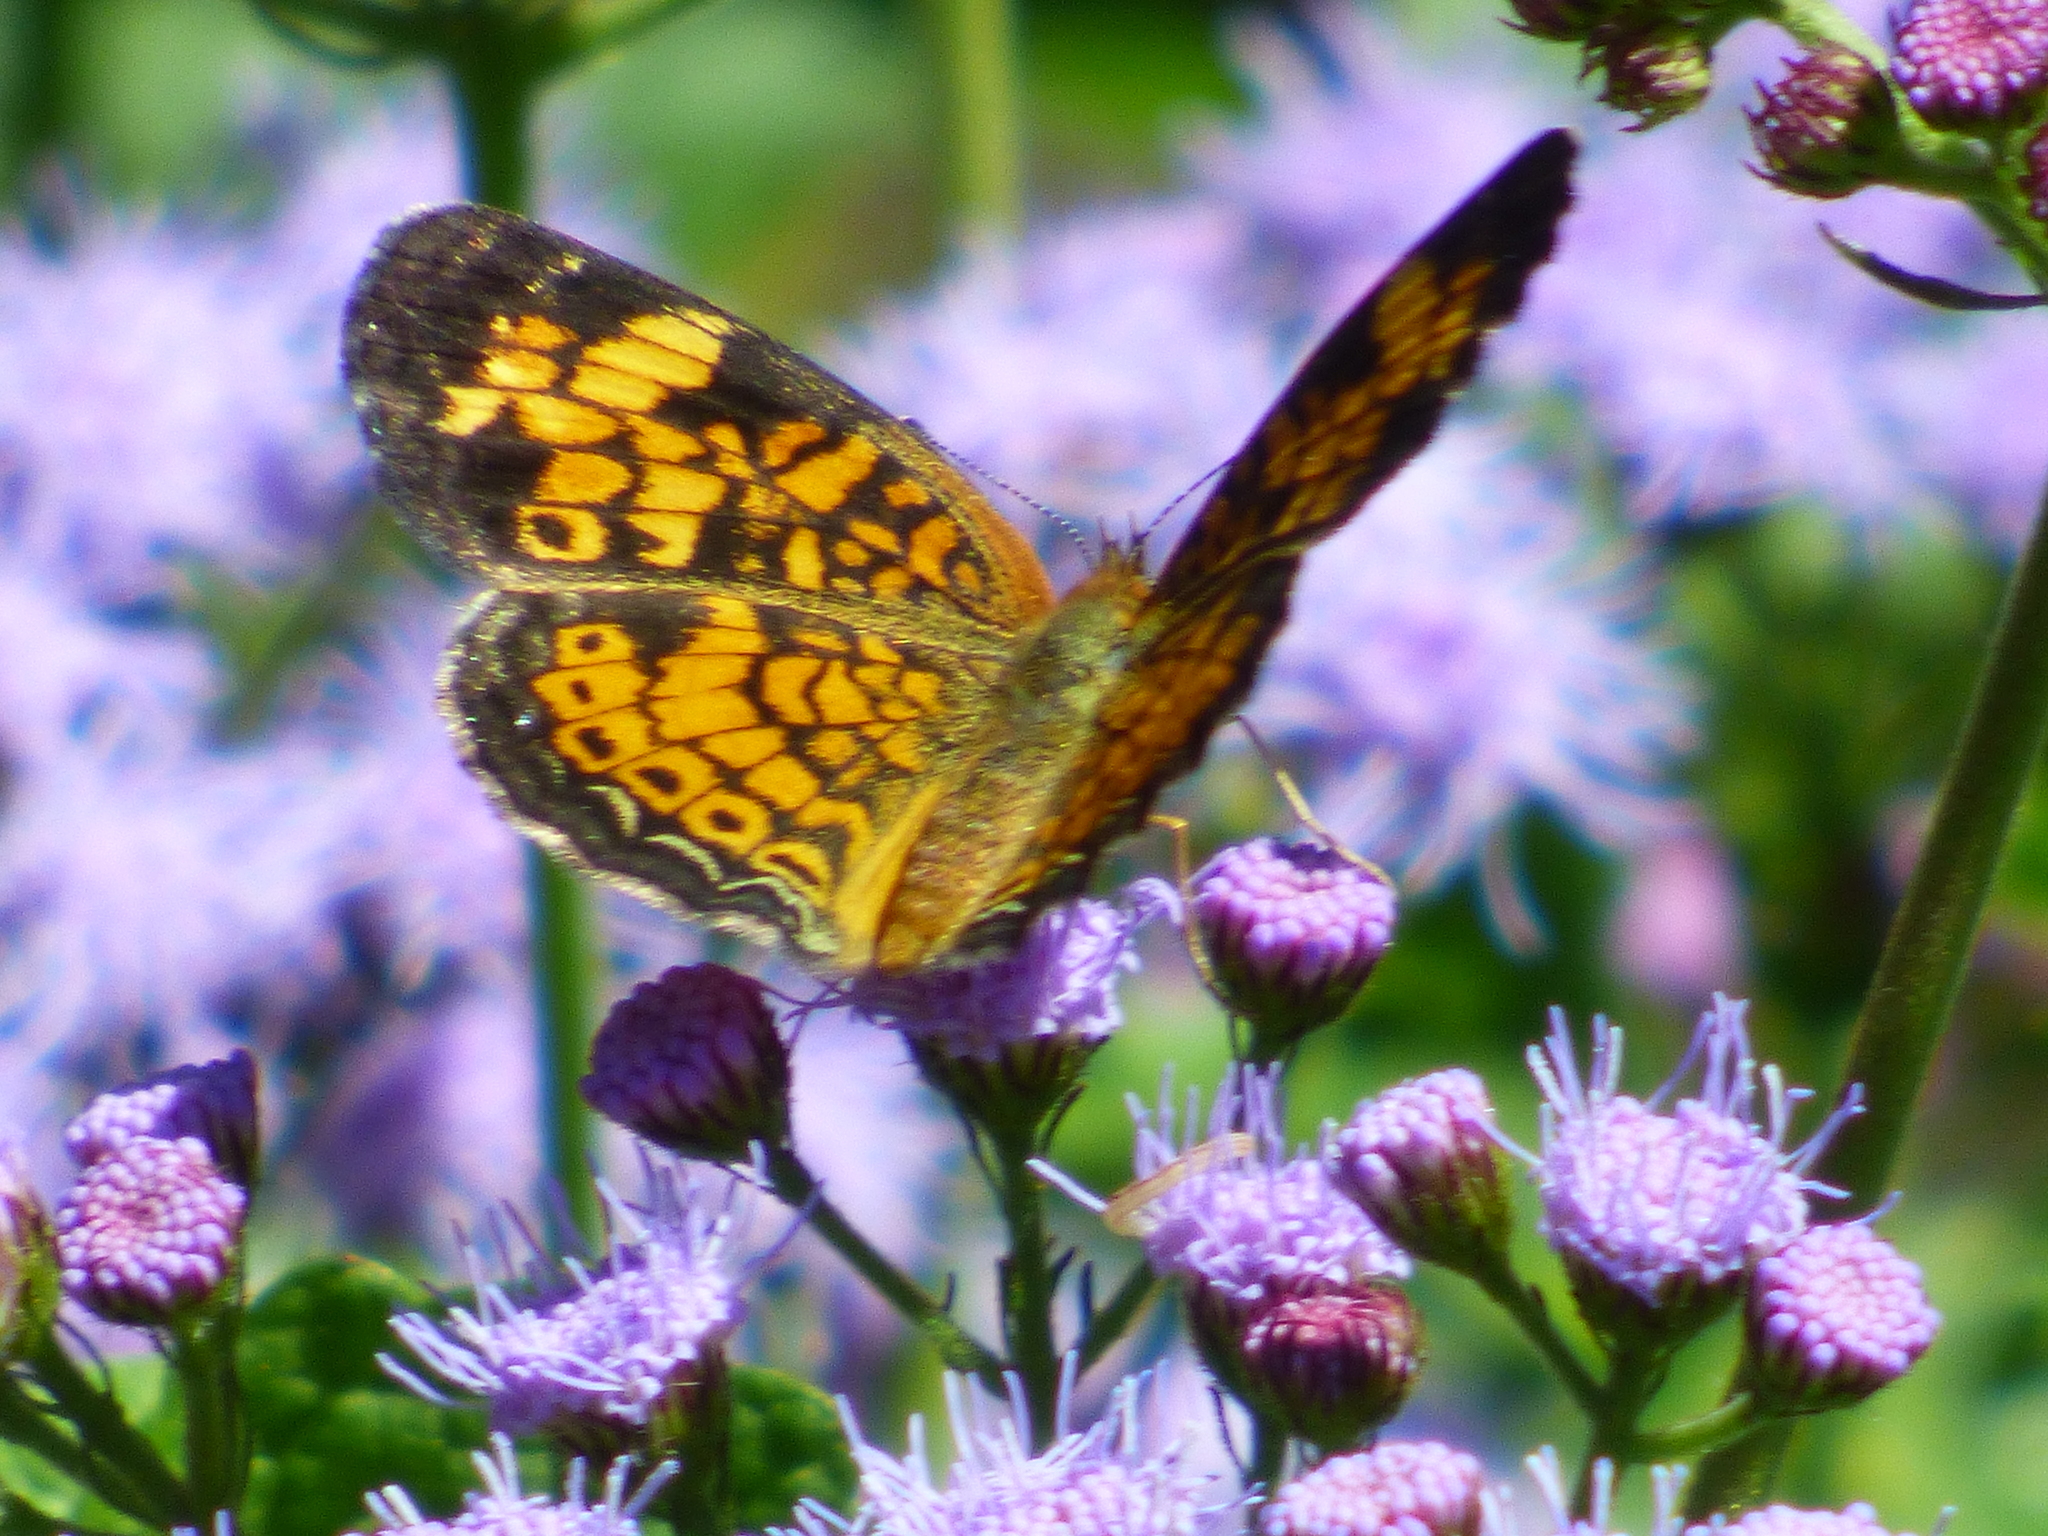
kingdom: Animalia
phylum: Arthropoda
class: Insecta
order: Lepidoptera
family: Nymphalidae
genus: Phyciodes
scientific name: Phyciodes tharos
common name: Pearl crescent
